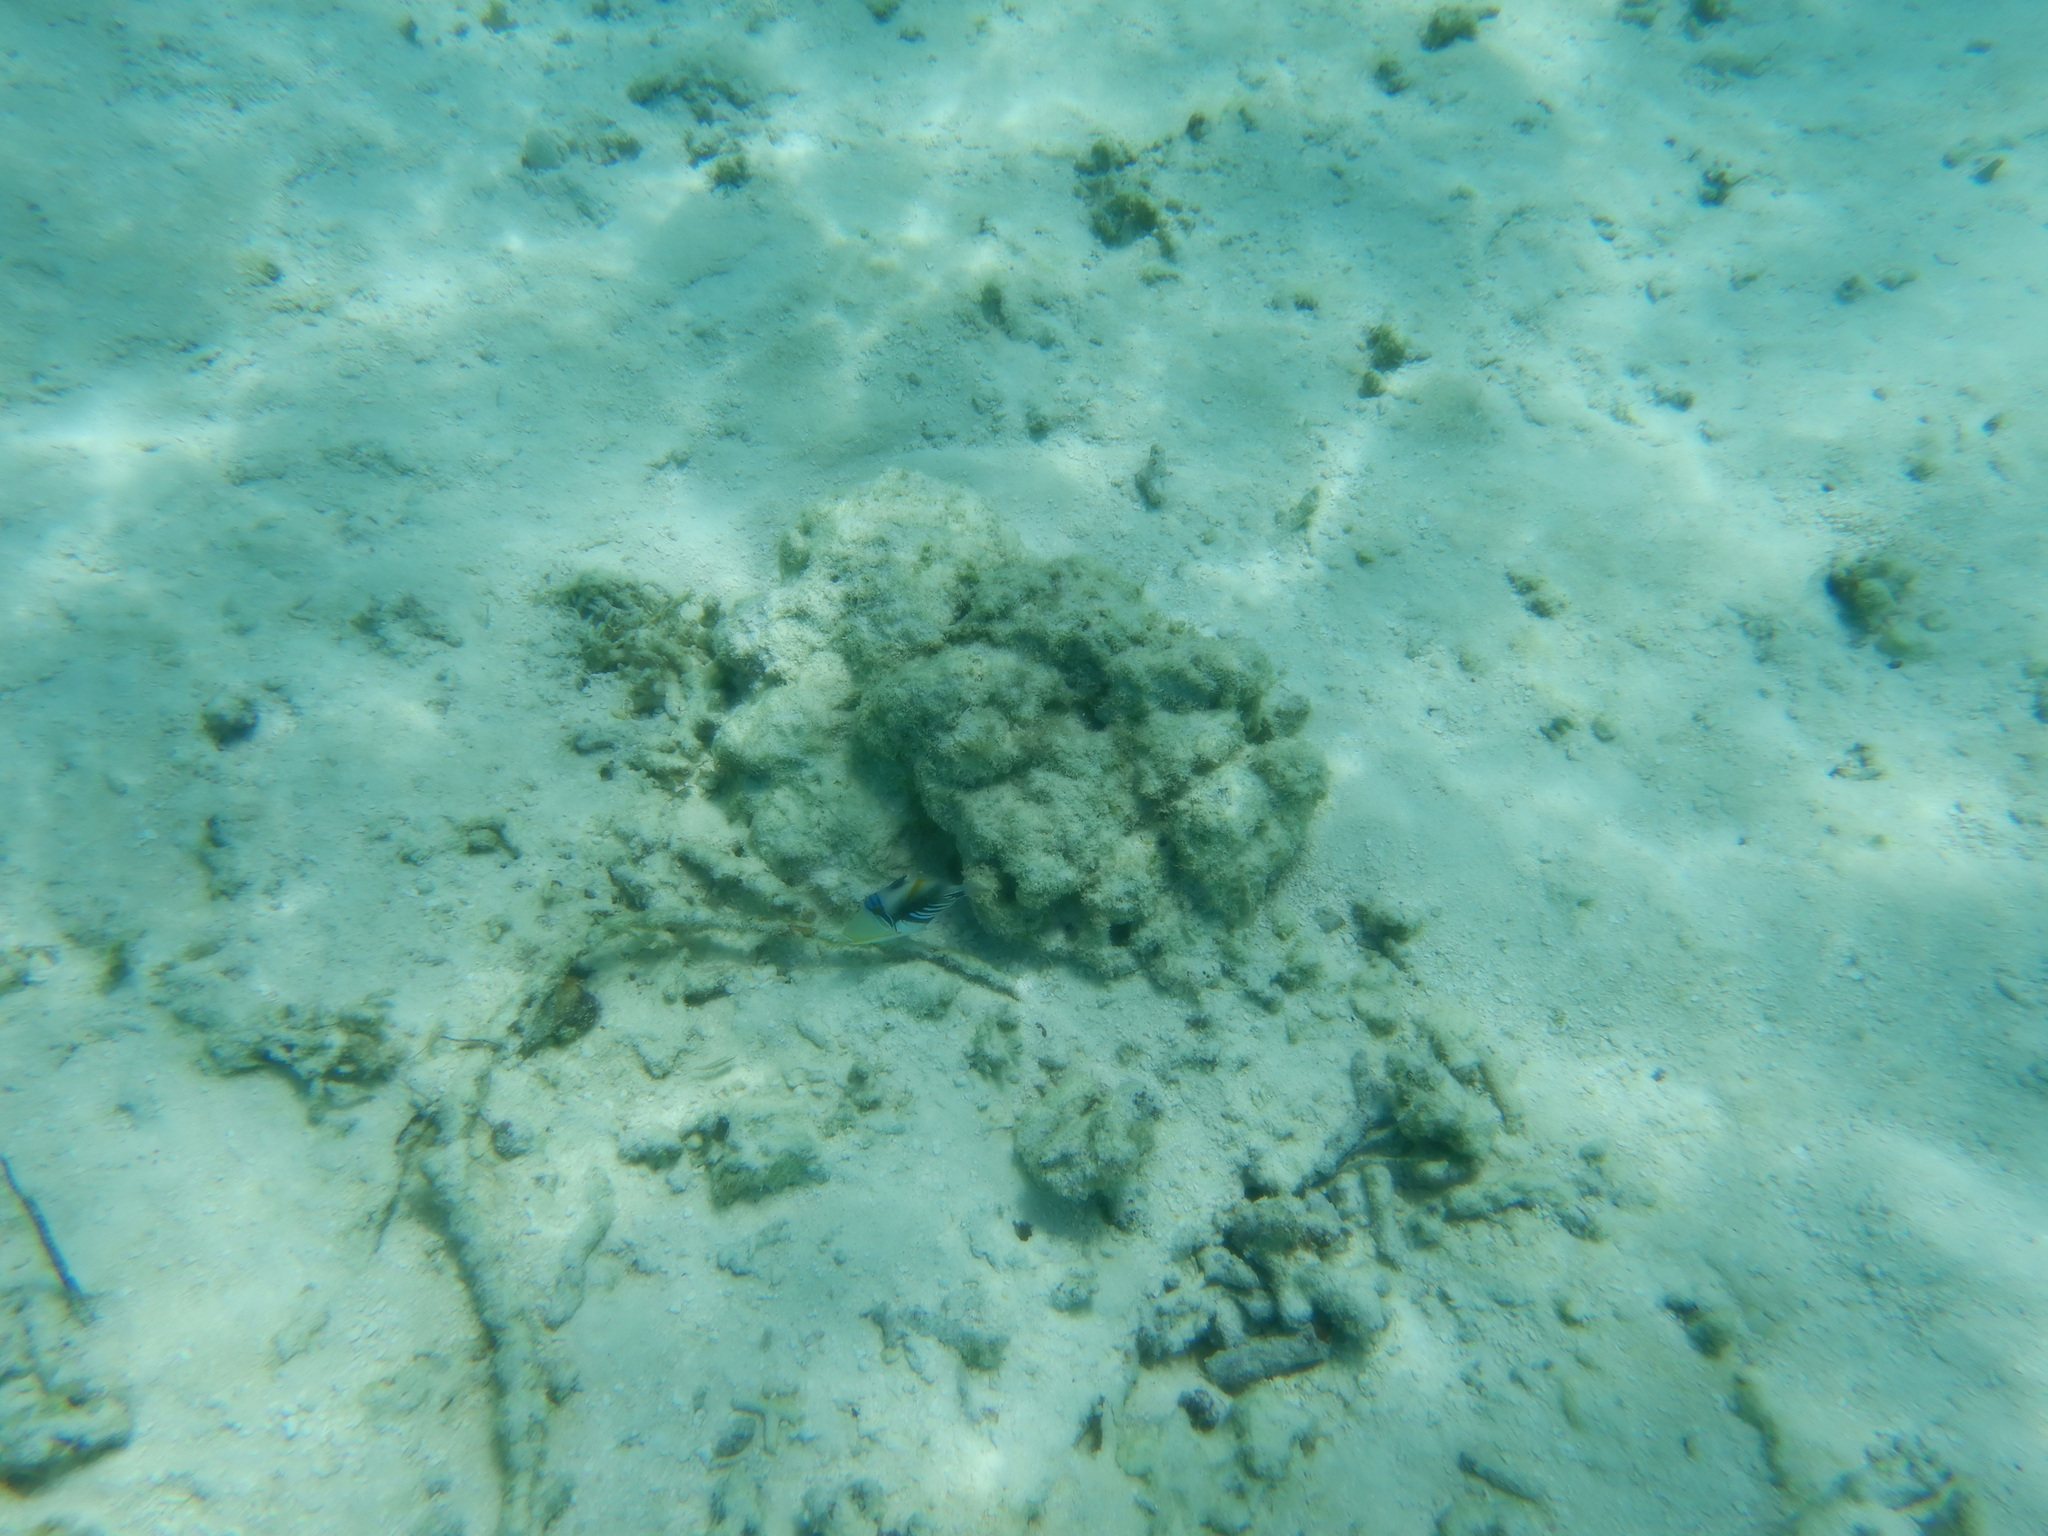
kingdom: Animalia
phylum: Chordata
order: Tetraodontiformes
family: Balistidae
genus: Rhinecanthus
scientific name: Rhinecanthus aculeatus
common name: White-banded triggerfish
